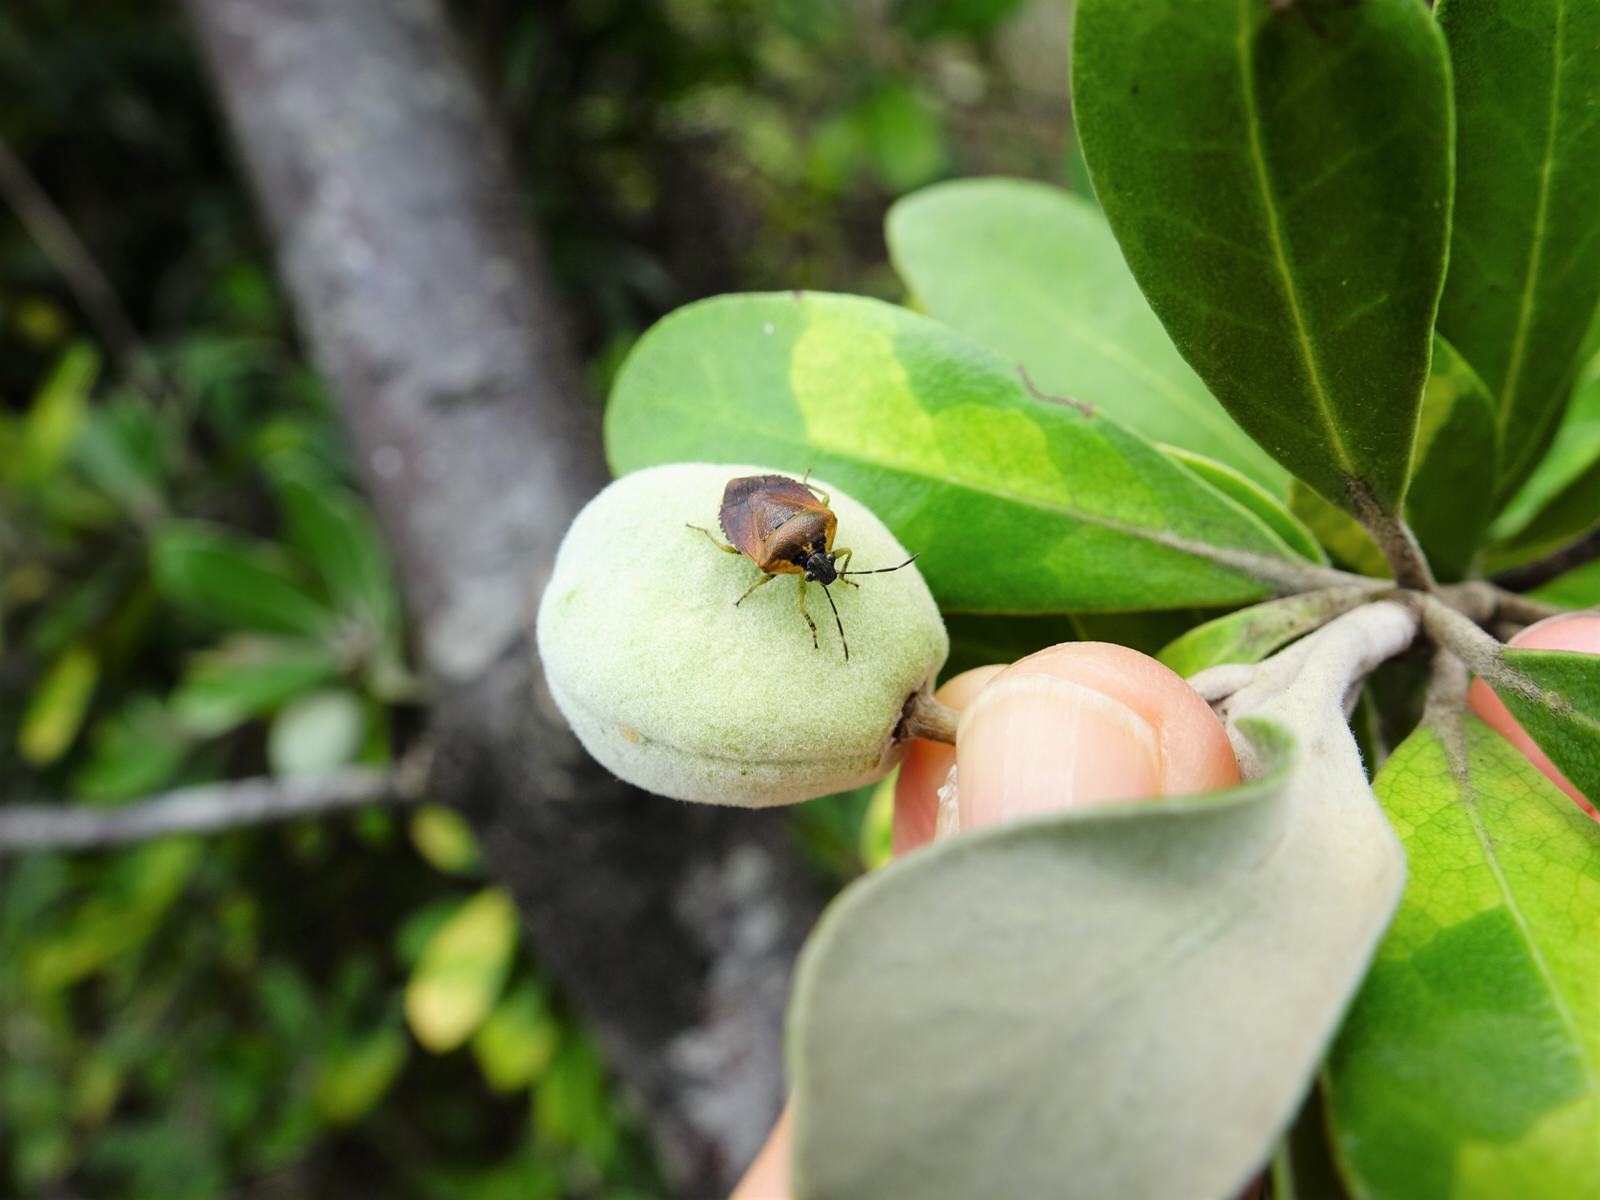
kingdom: Animalia
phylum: Arthropoda
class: Insecta
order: Hemiptera
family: Pentatomidae
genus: Monteithiella
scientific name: Monteithiella
